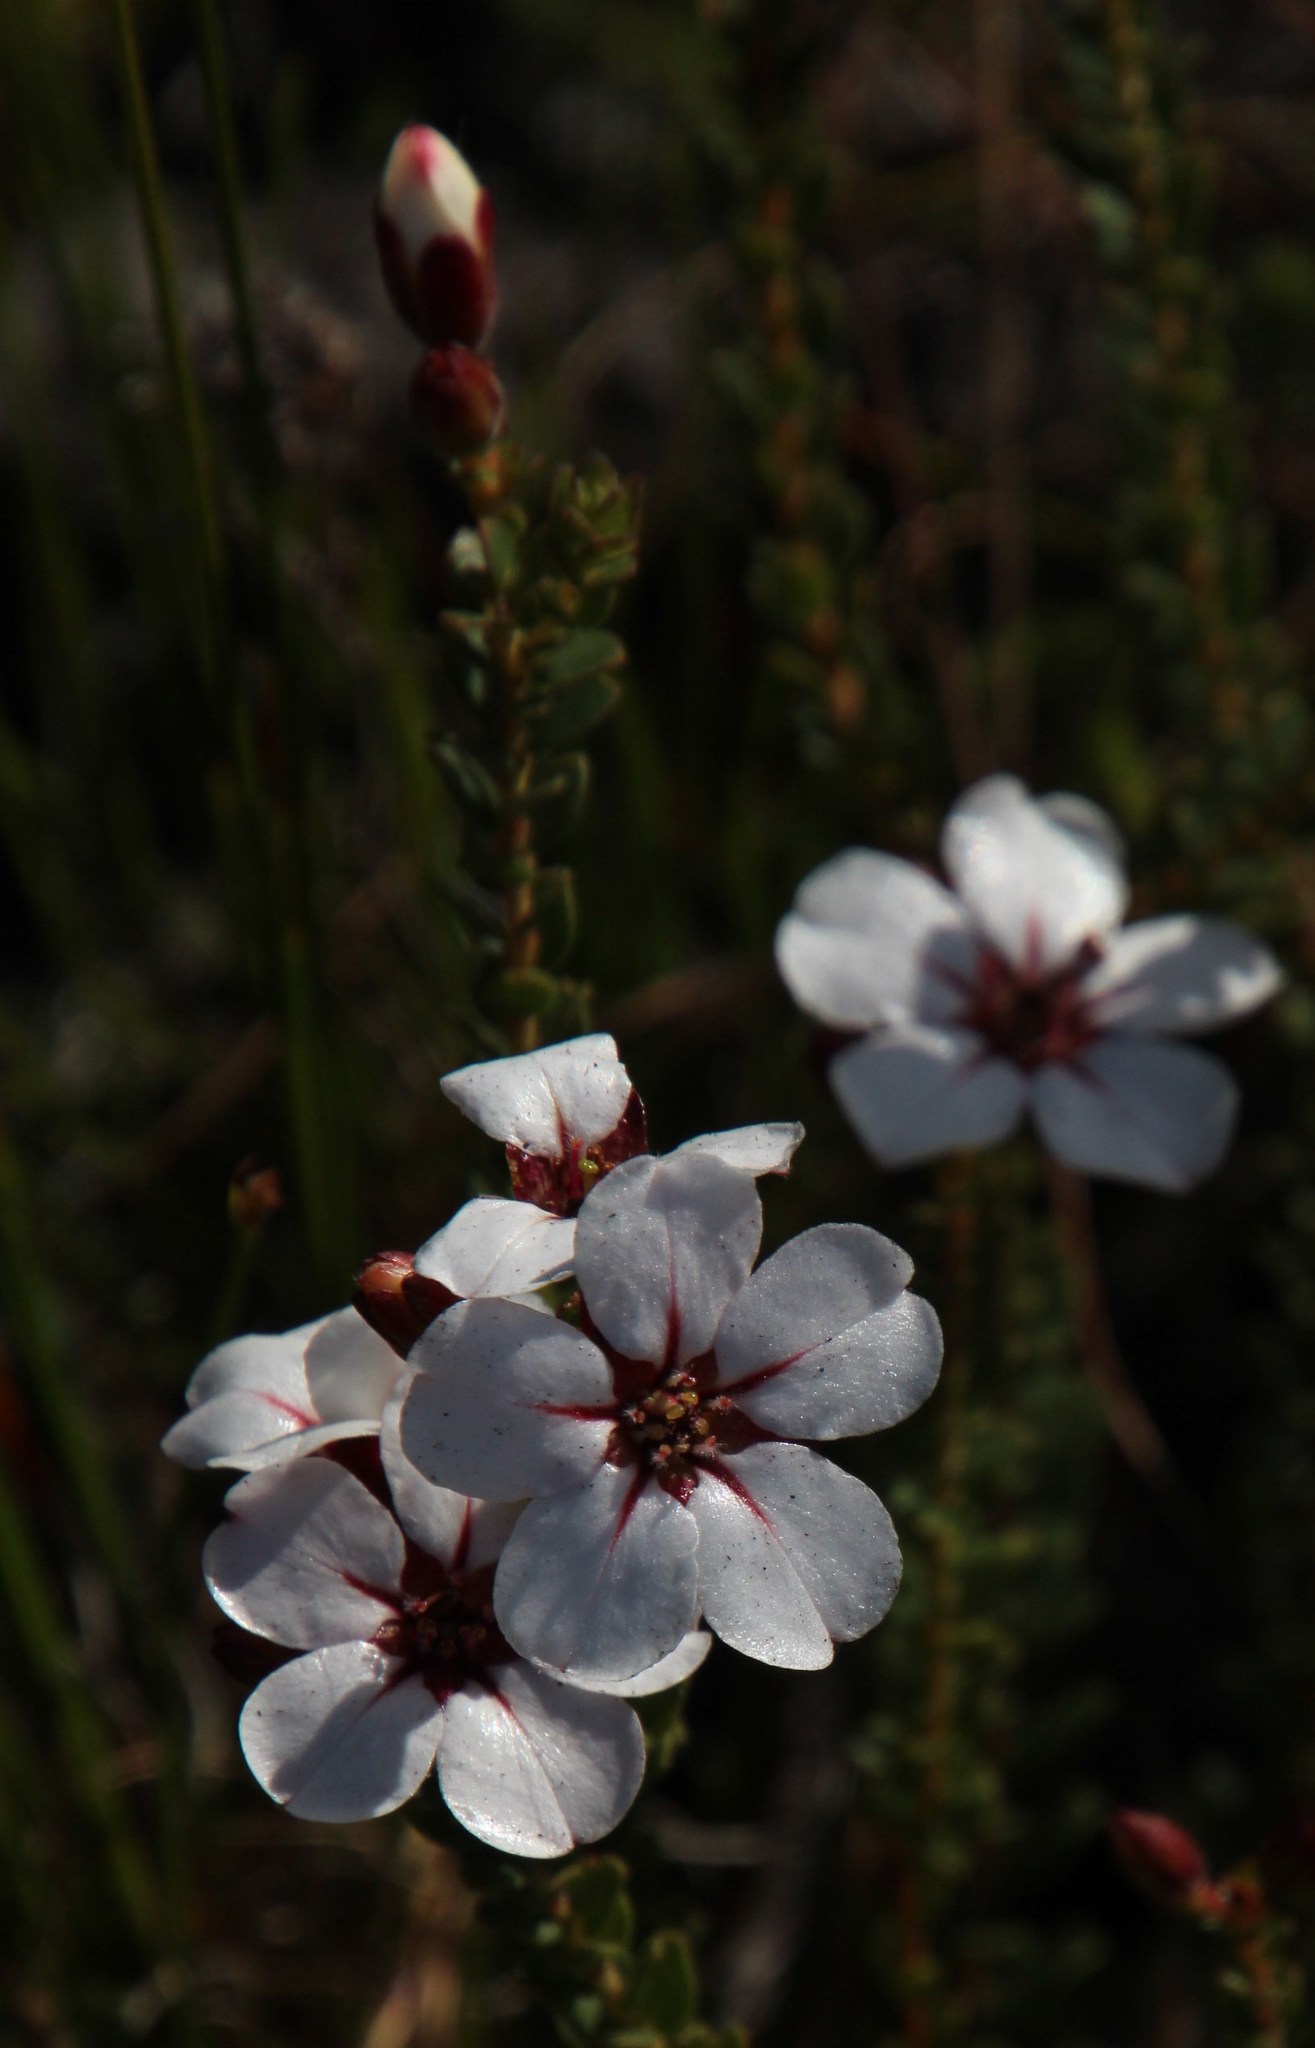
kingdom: Plantae
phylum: Tracheophyta
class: Magnoliopsida
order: Sapindales
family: Rutaceae
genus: Adenandra
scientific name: Adenandra villosa
